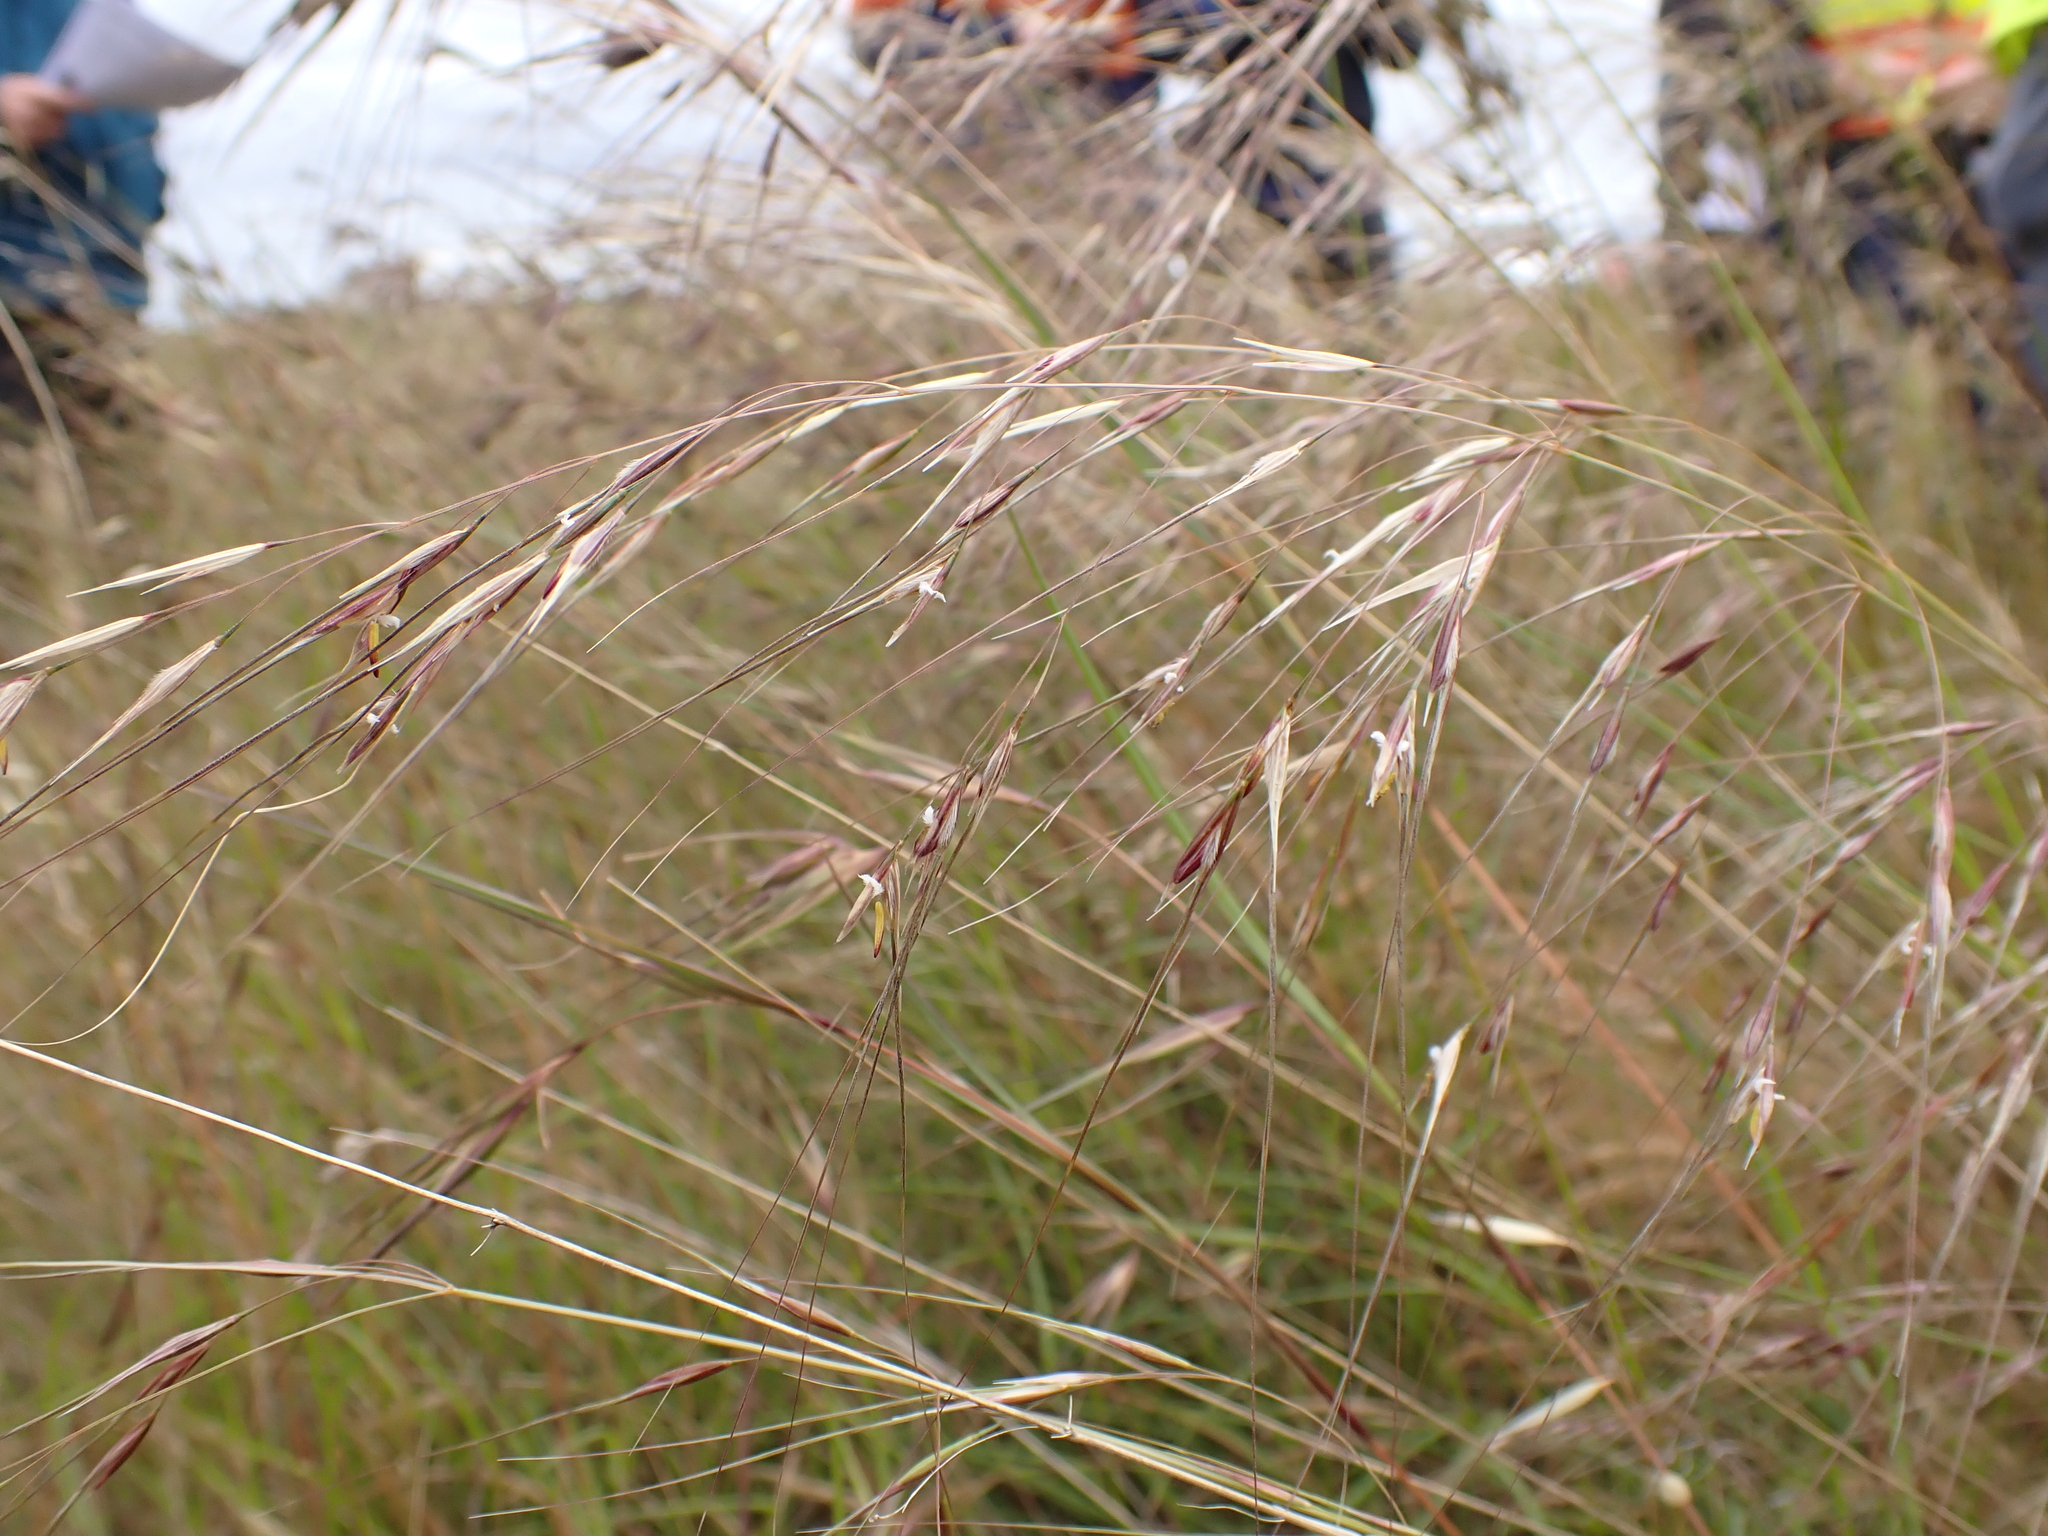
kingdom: Plantae
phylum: Tracheophyta
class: Liliopsida
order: Poales
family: Poaceae
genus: Austrostipa
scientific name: Austrostipa bigeniculata
